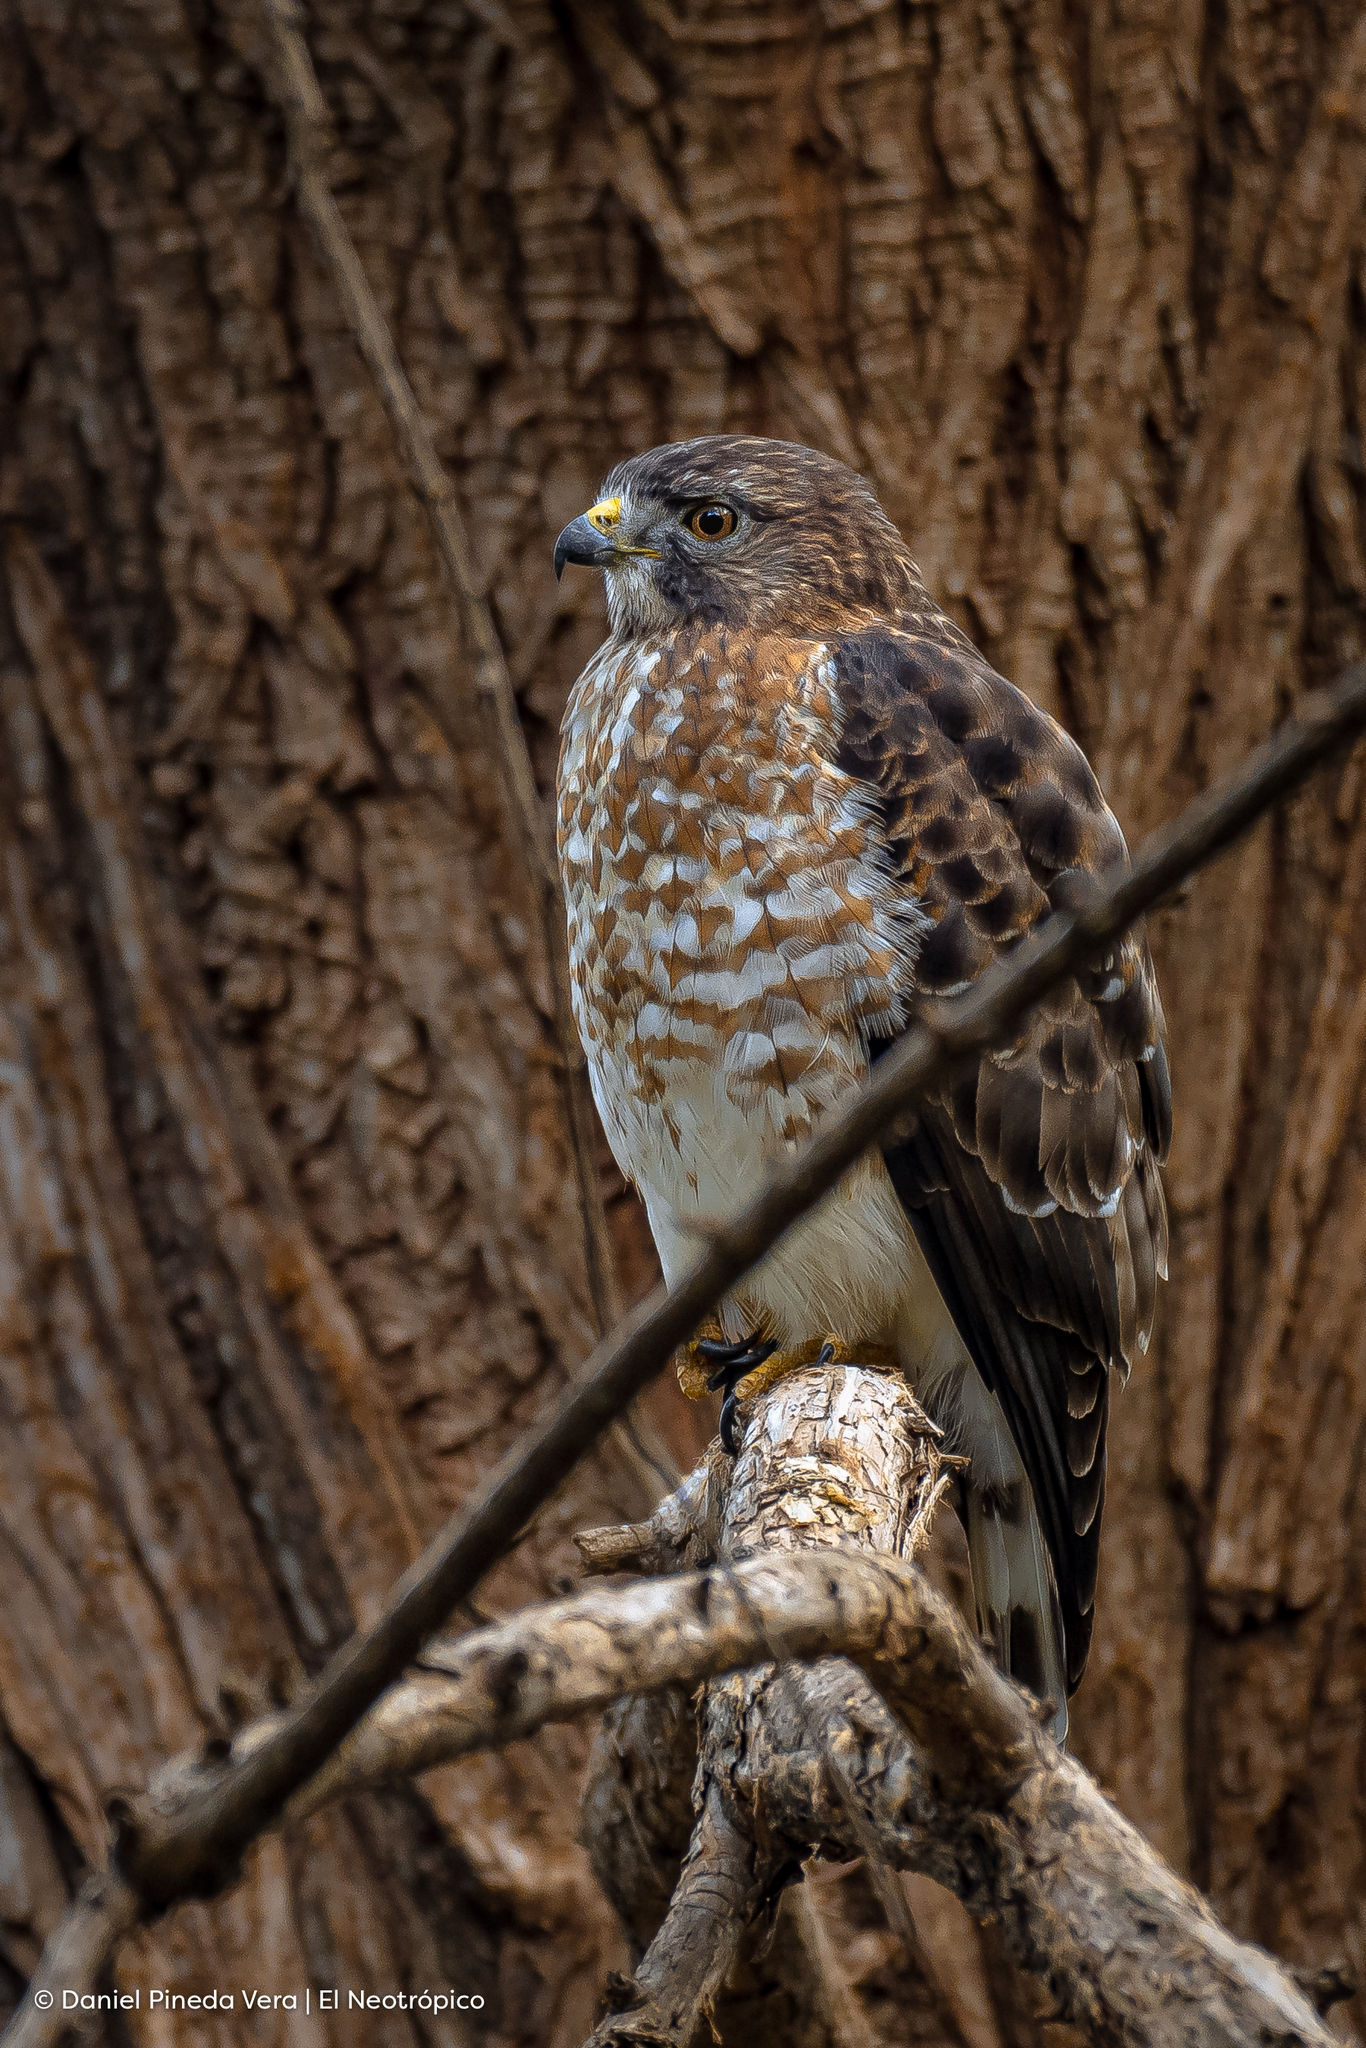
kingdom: Animalia
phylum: Chordata
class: Aves
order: Accipitriformes
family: Accipitridae
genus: Buteo
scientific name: Buteo platypterus
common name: Broad-winged hawk
